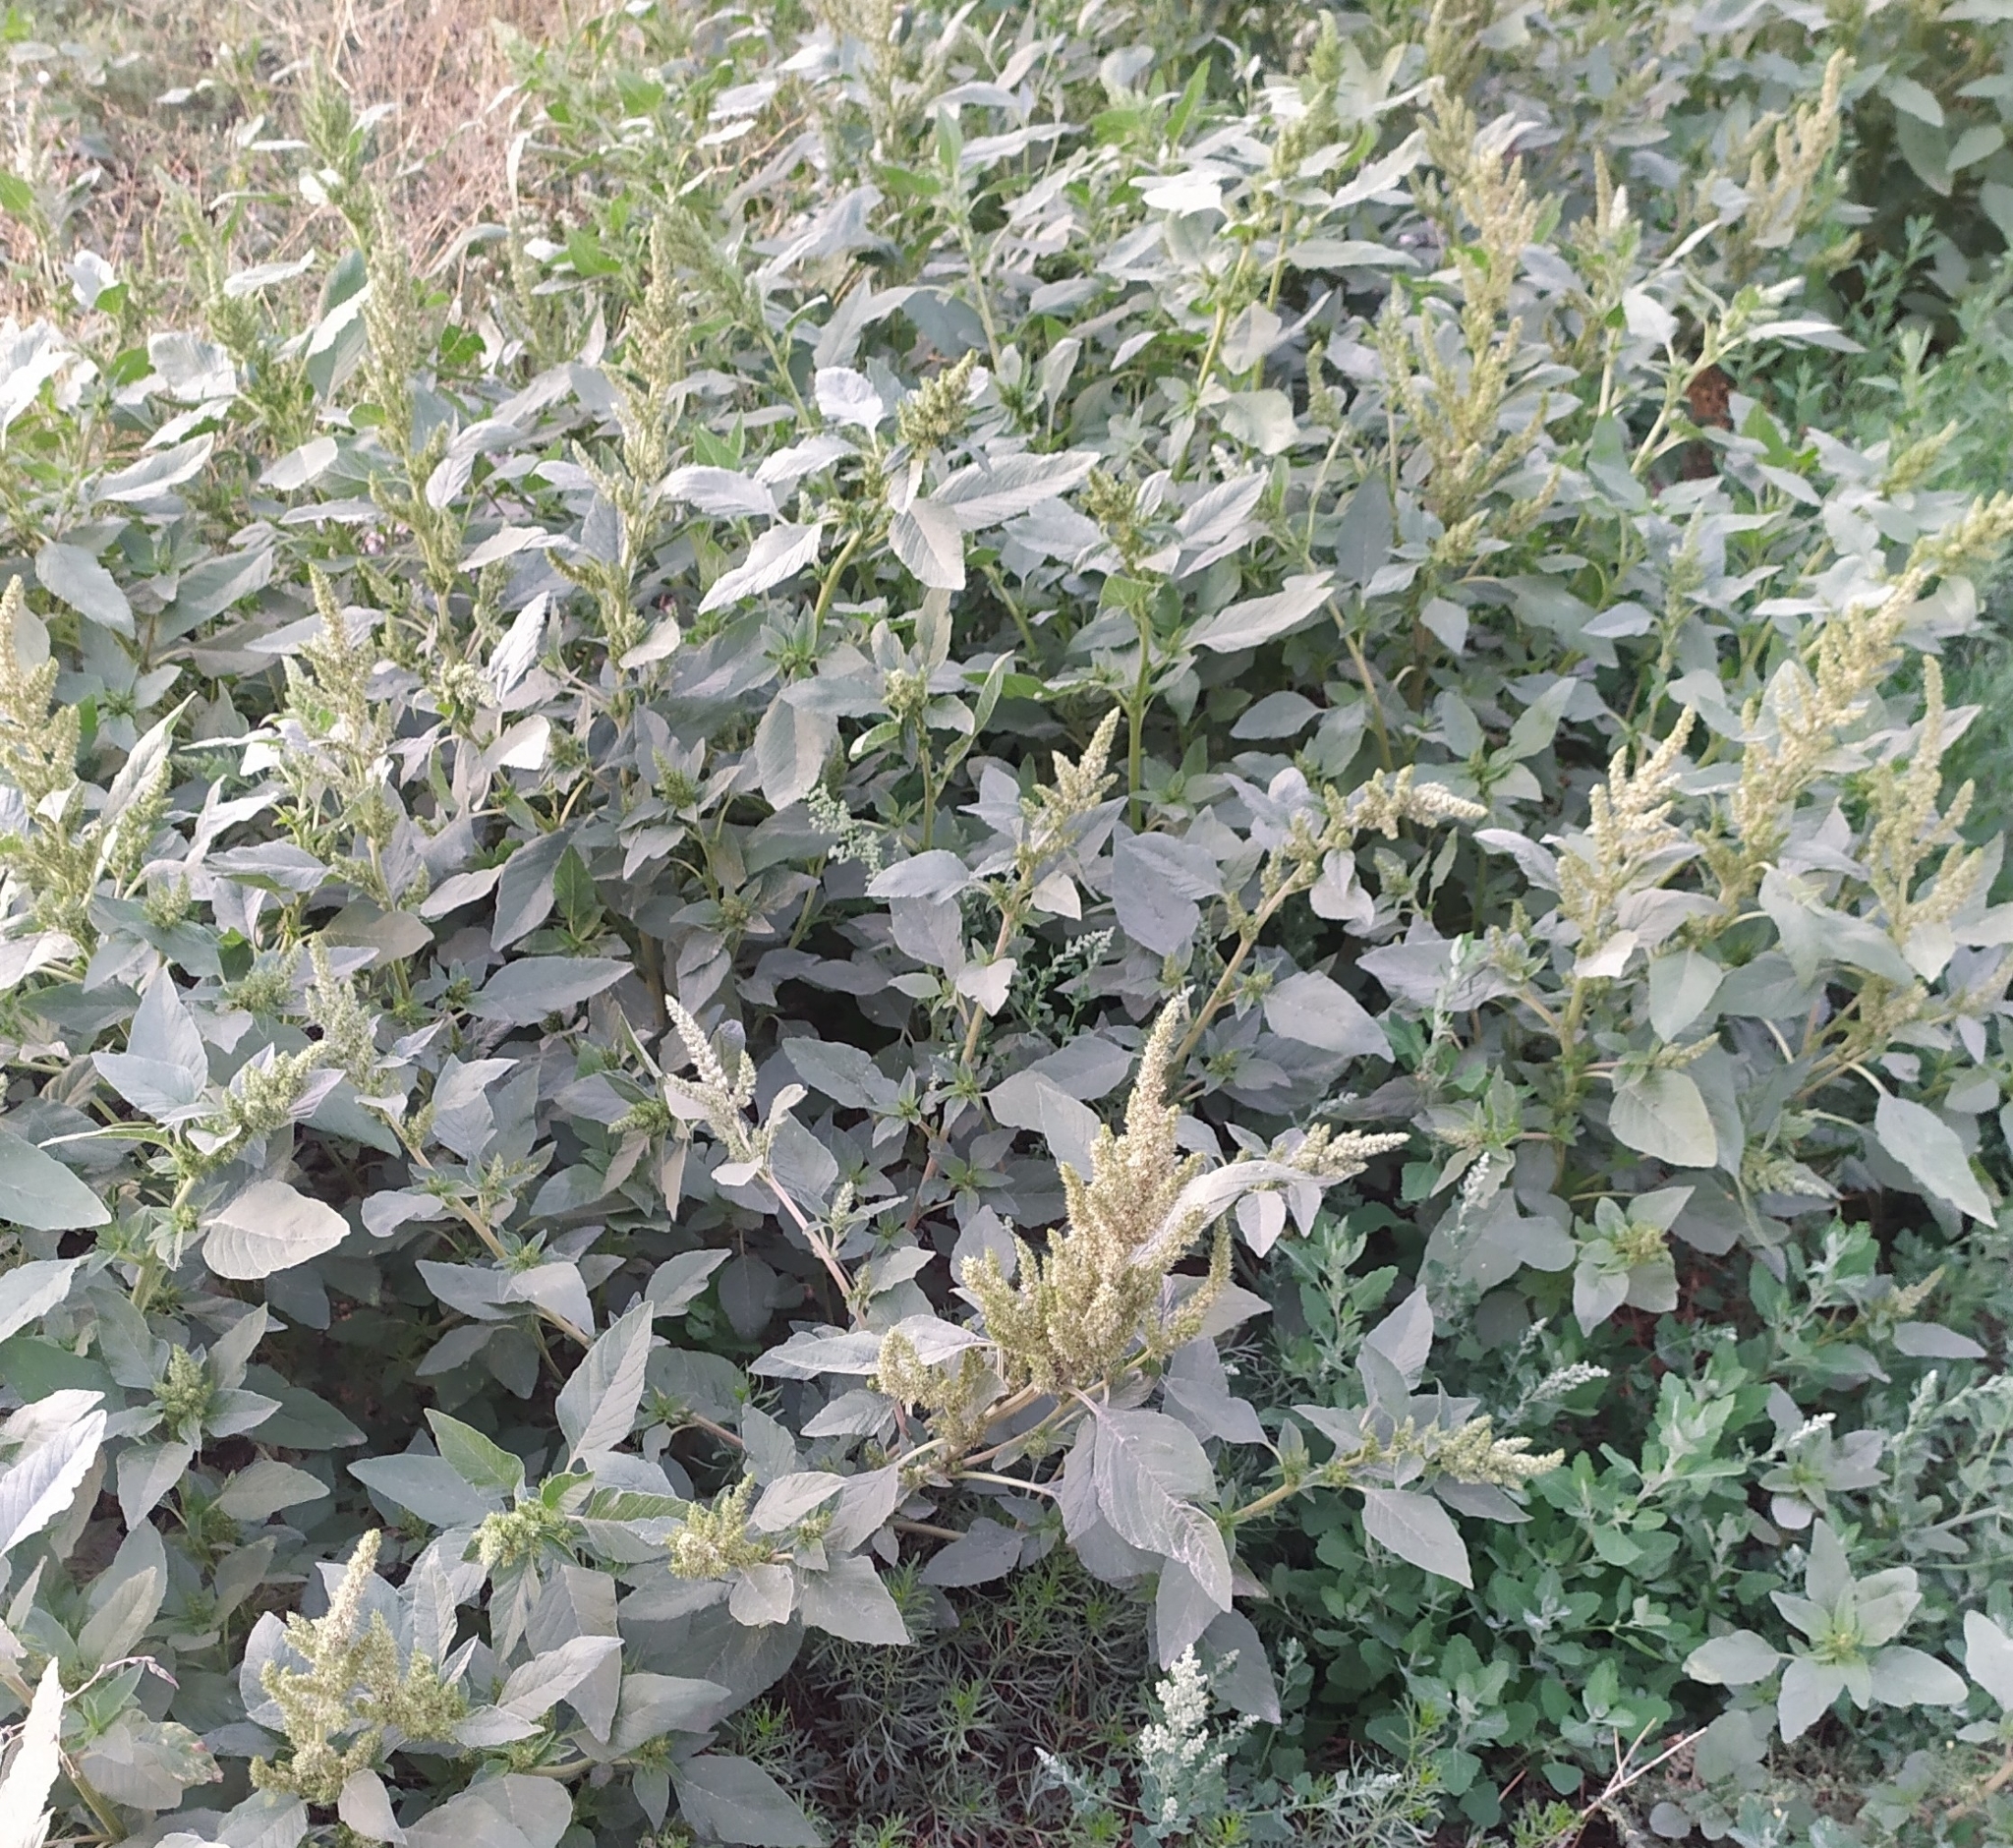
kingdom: Plantae
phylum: Tracheophyta
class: Magnoliopsida
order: Caryophyllales
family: Amaranthaceae
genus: Amaranthus
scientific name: Amaranthus retroflexus
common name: Redroot amaranth
